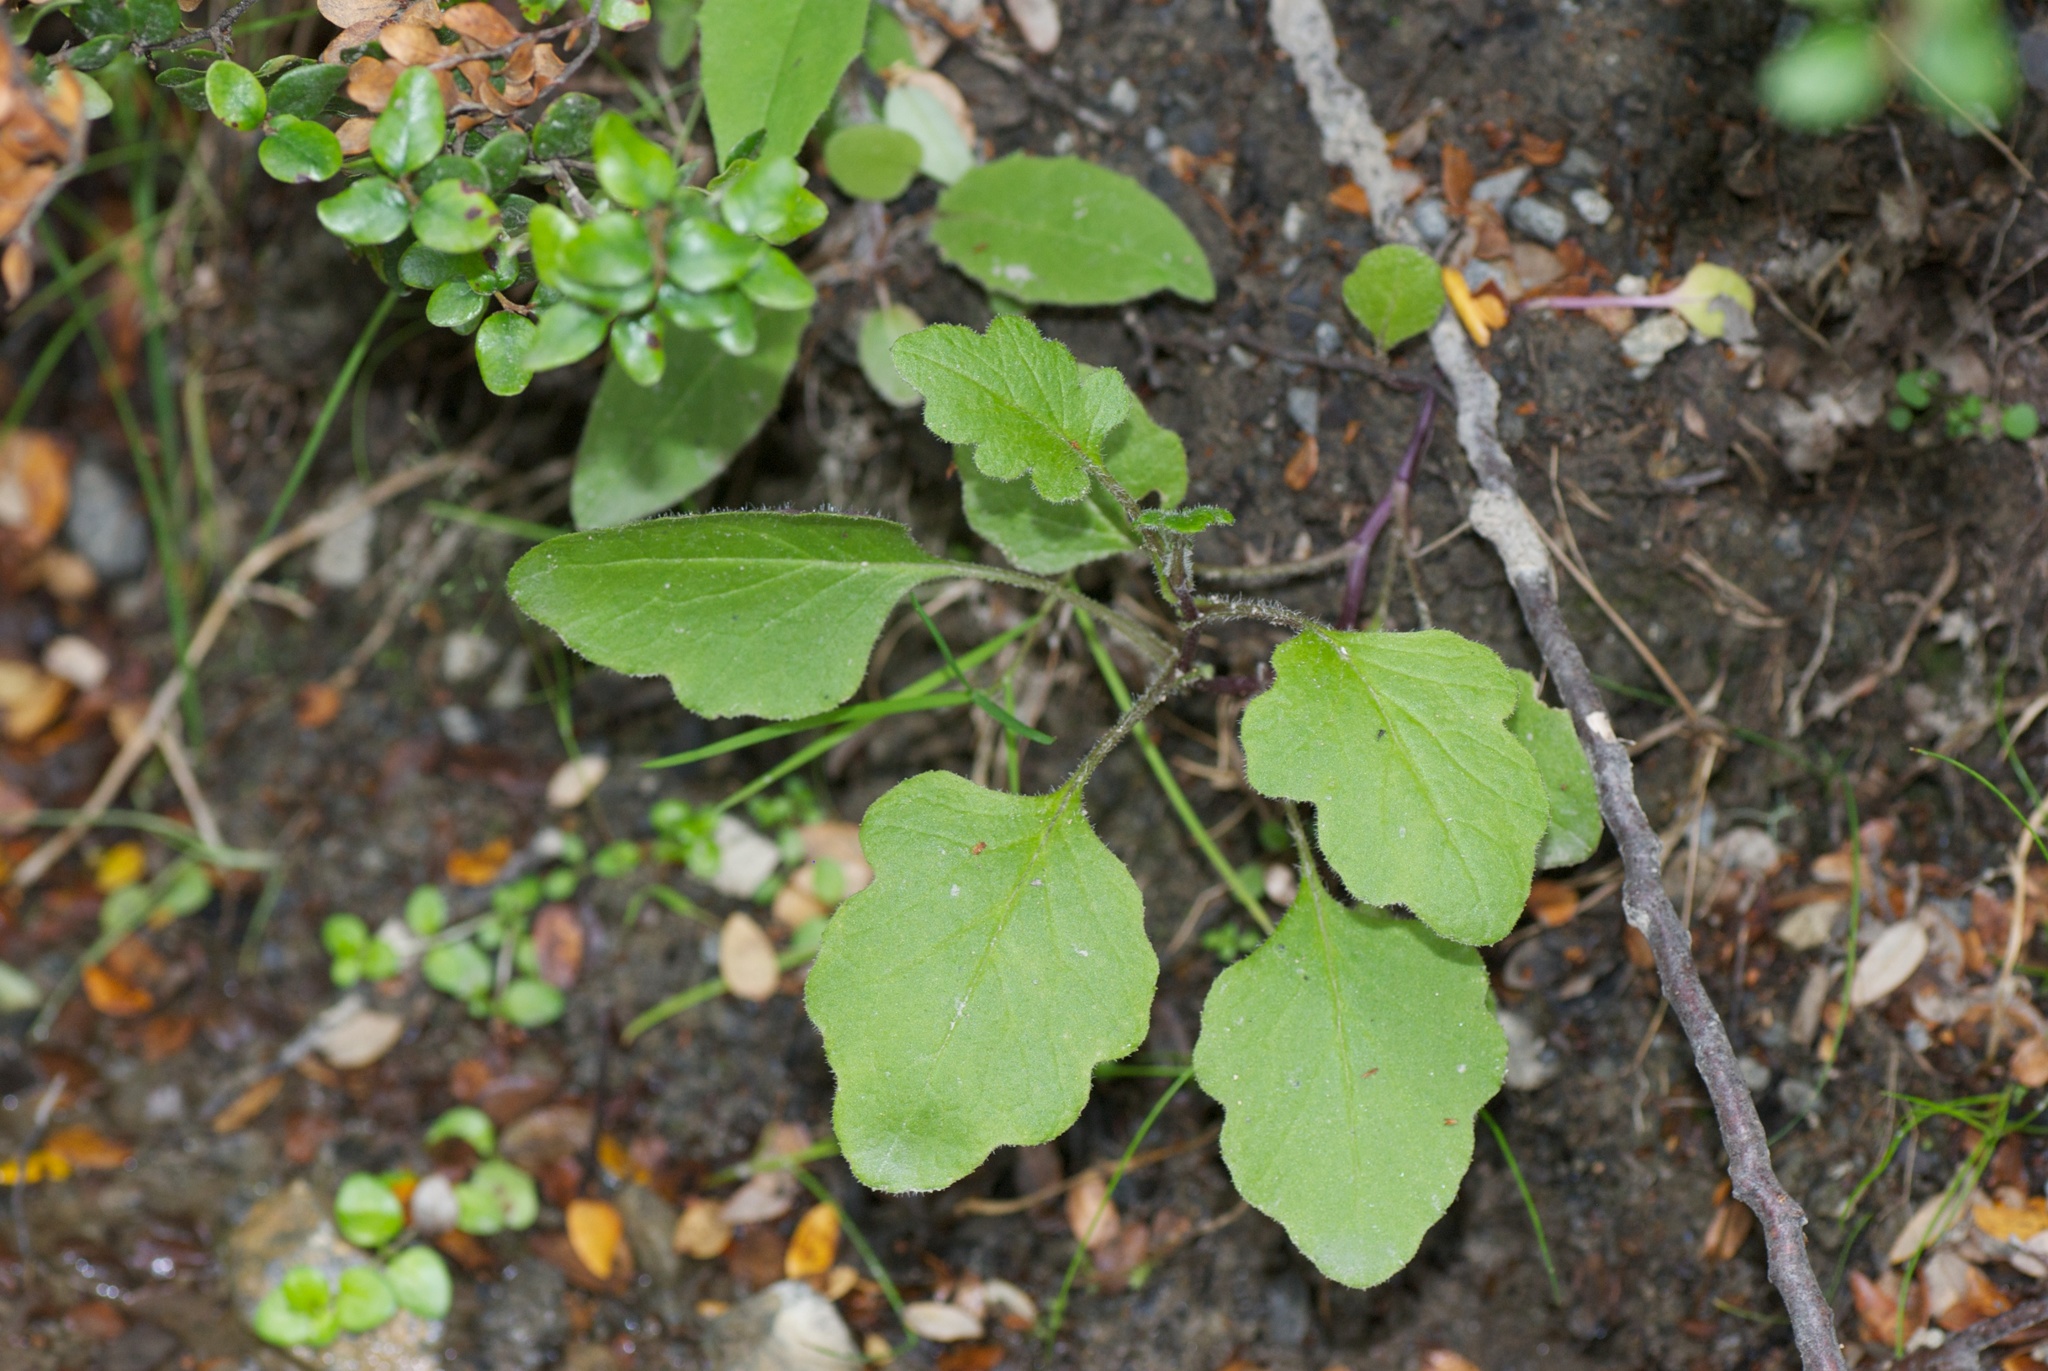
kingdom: Plantae
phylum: Tracheophyta
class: Magnoliopsida
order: Asterales
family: Asteraceae
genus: Senecio
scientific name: Senecio wairauensis
